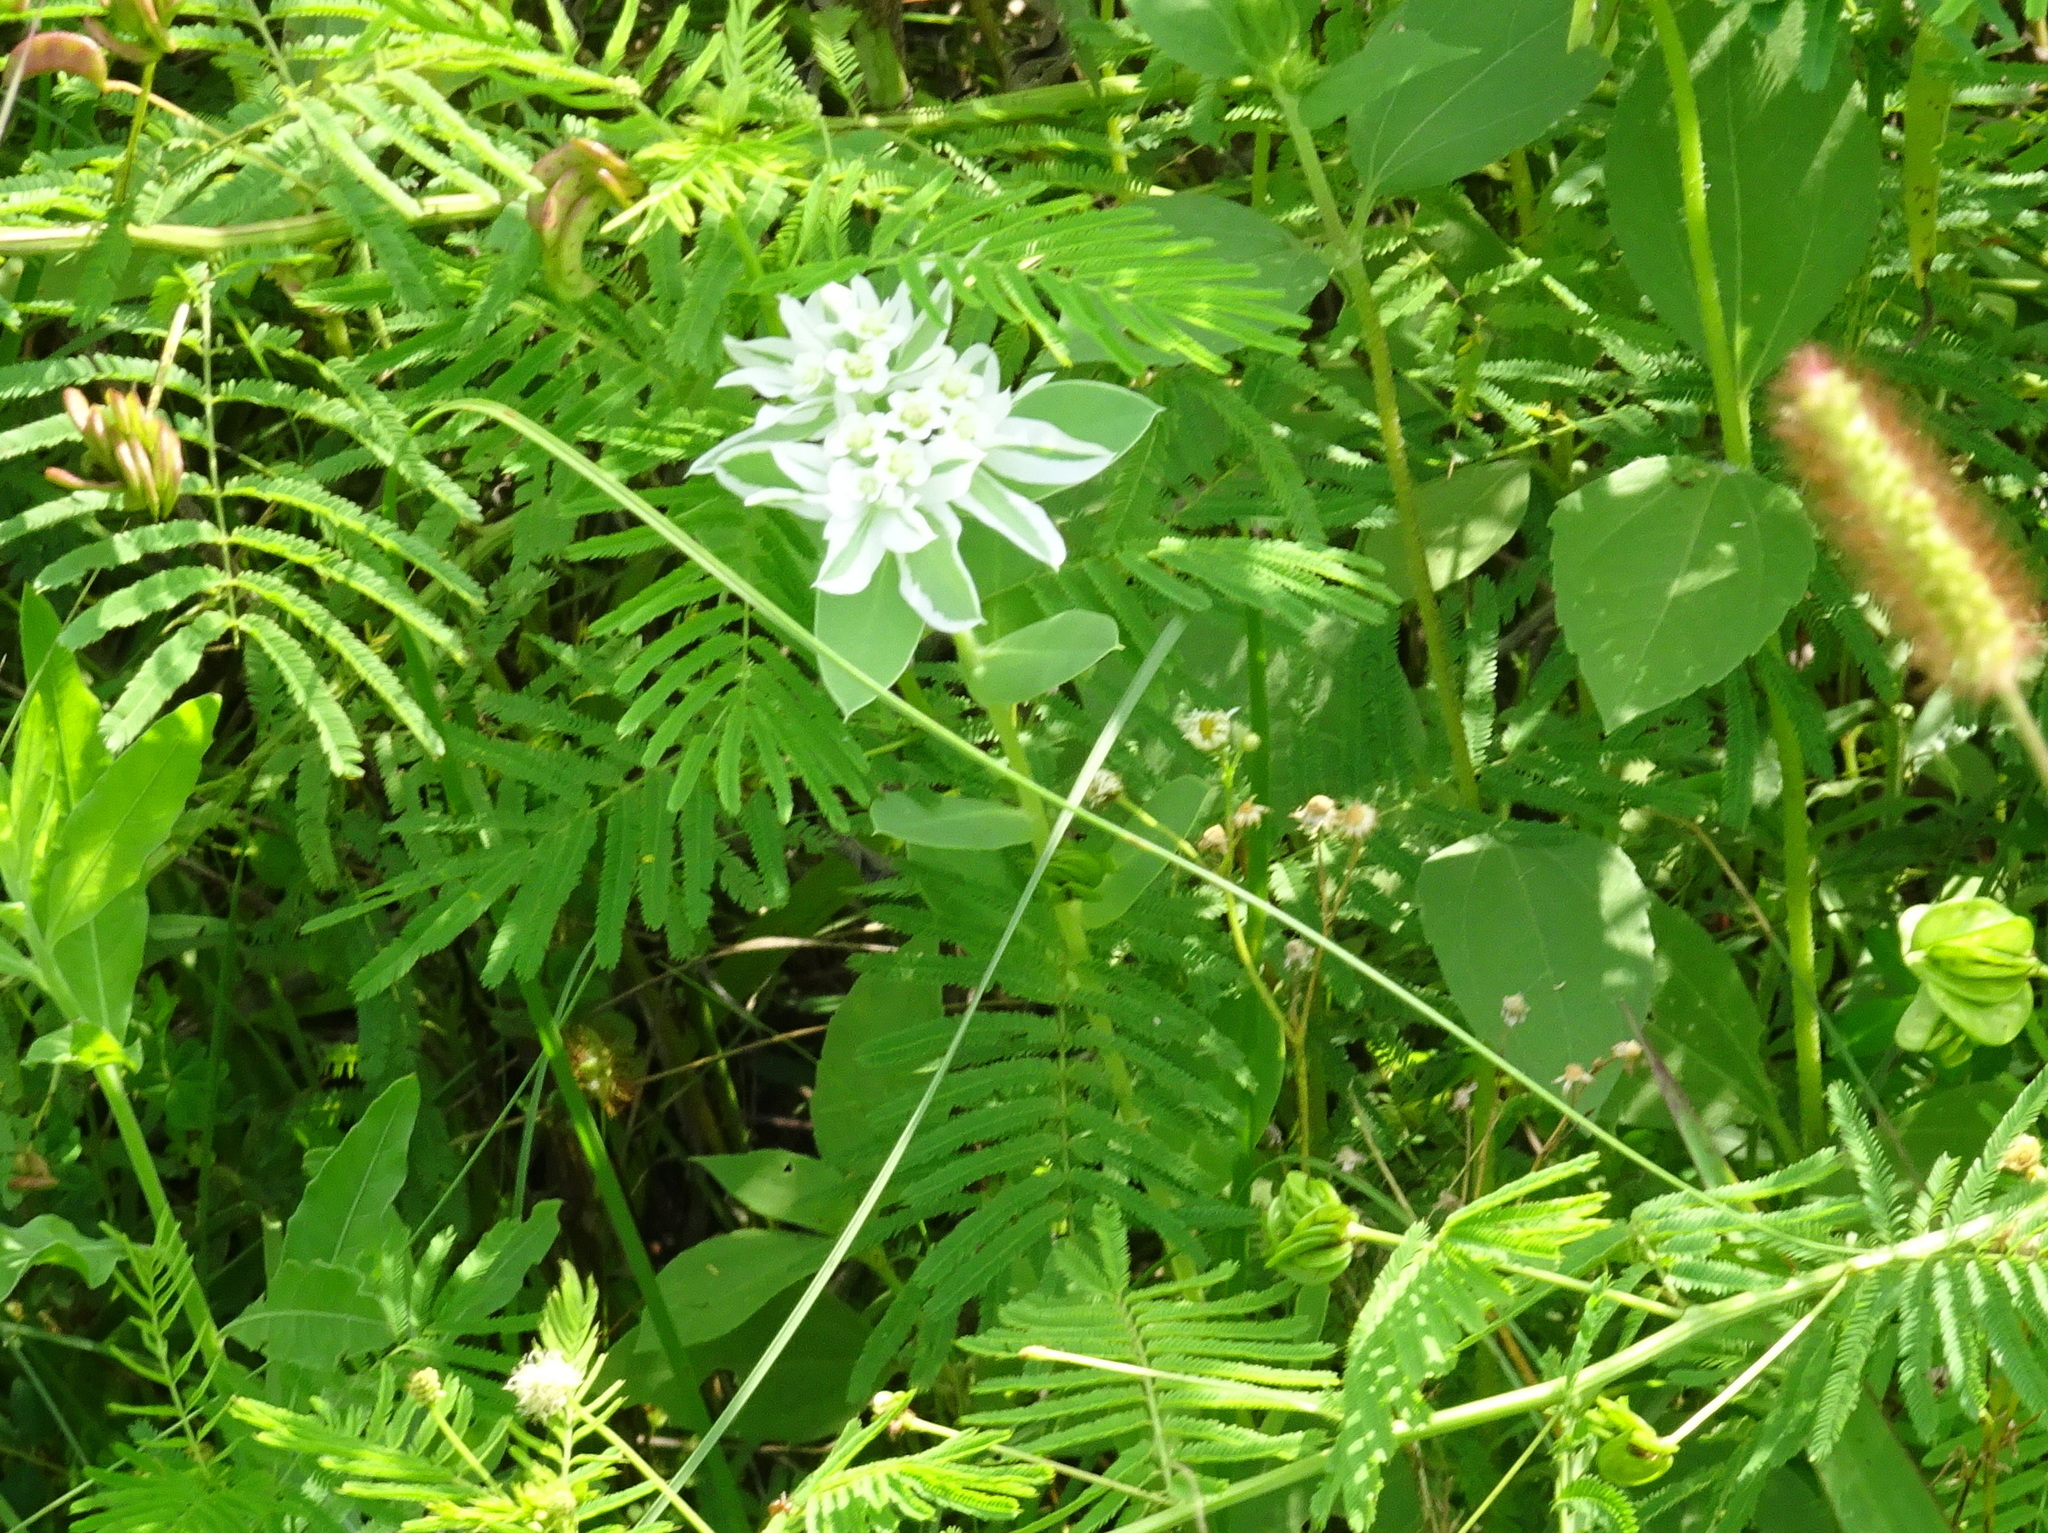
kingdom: Plantae
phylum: Tracheophyta
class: Magnoliopsida
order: Malpighiales
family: Euphorbiaceae
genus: Euphorbia
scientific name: Euphorbia marginata
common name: Ghostweed
